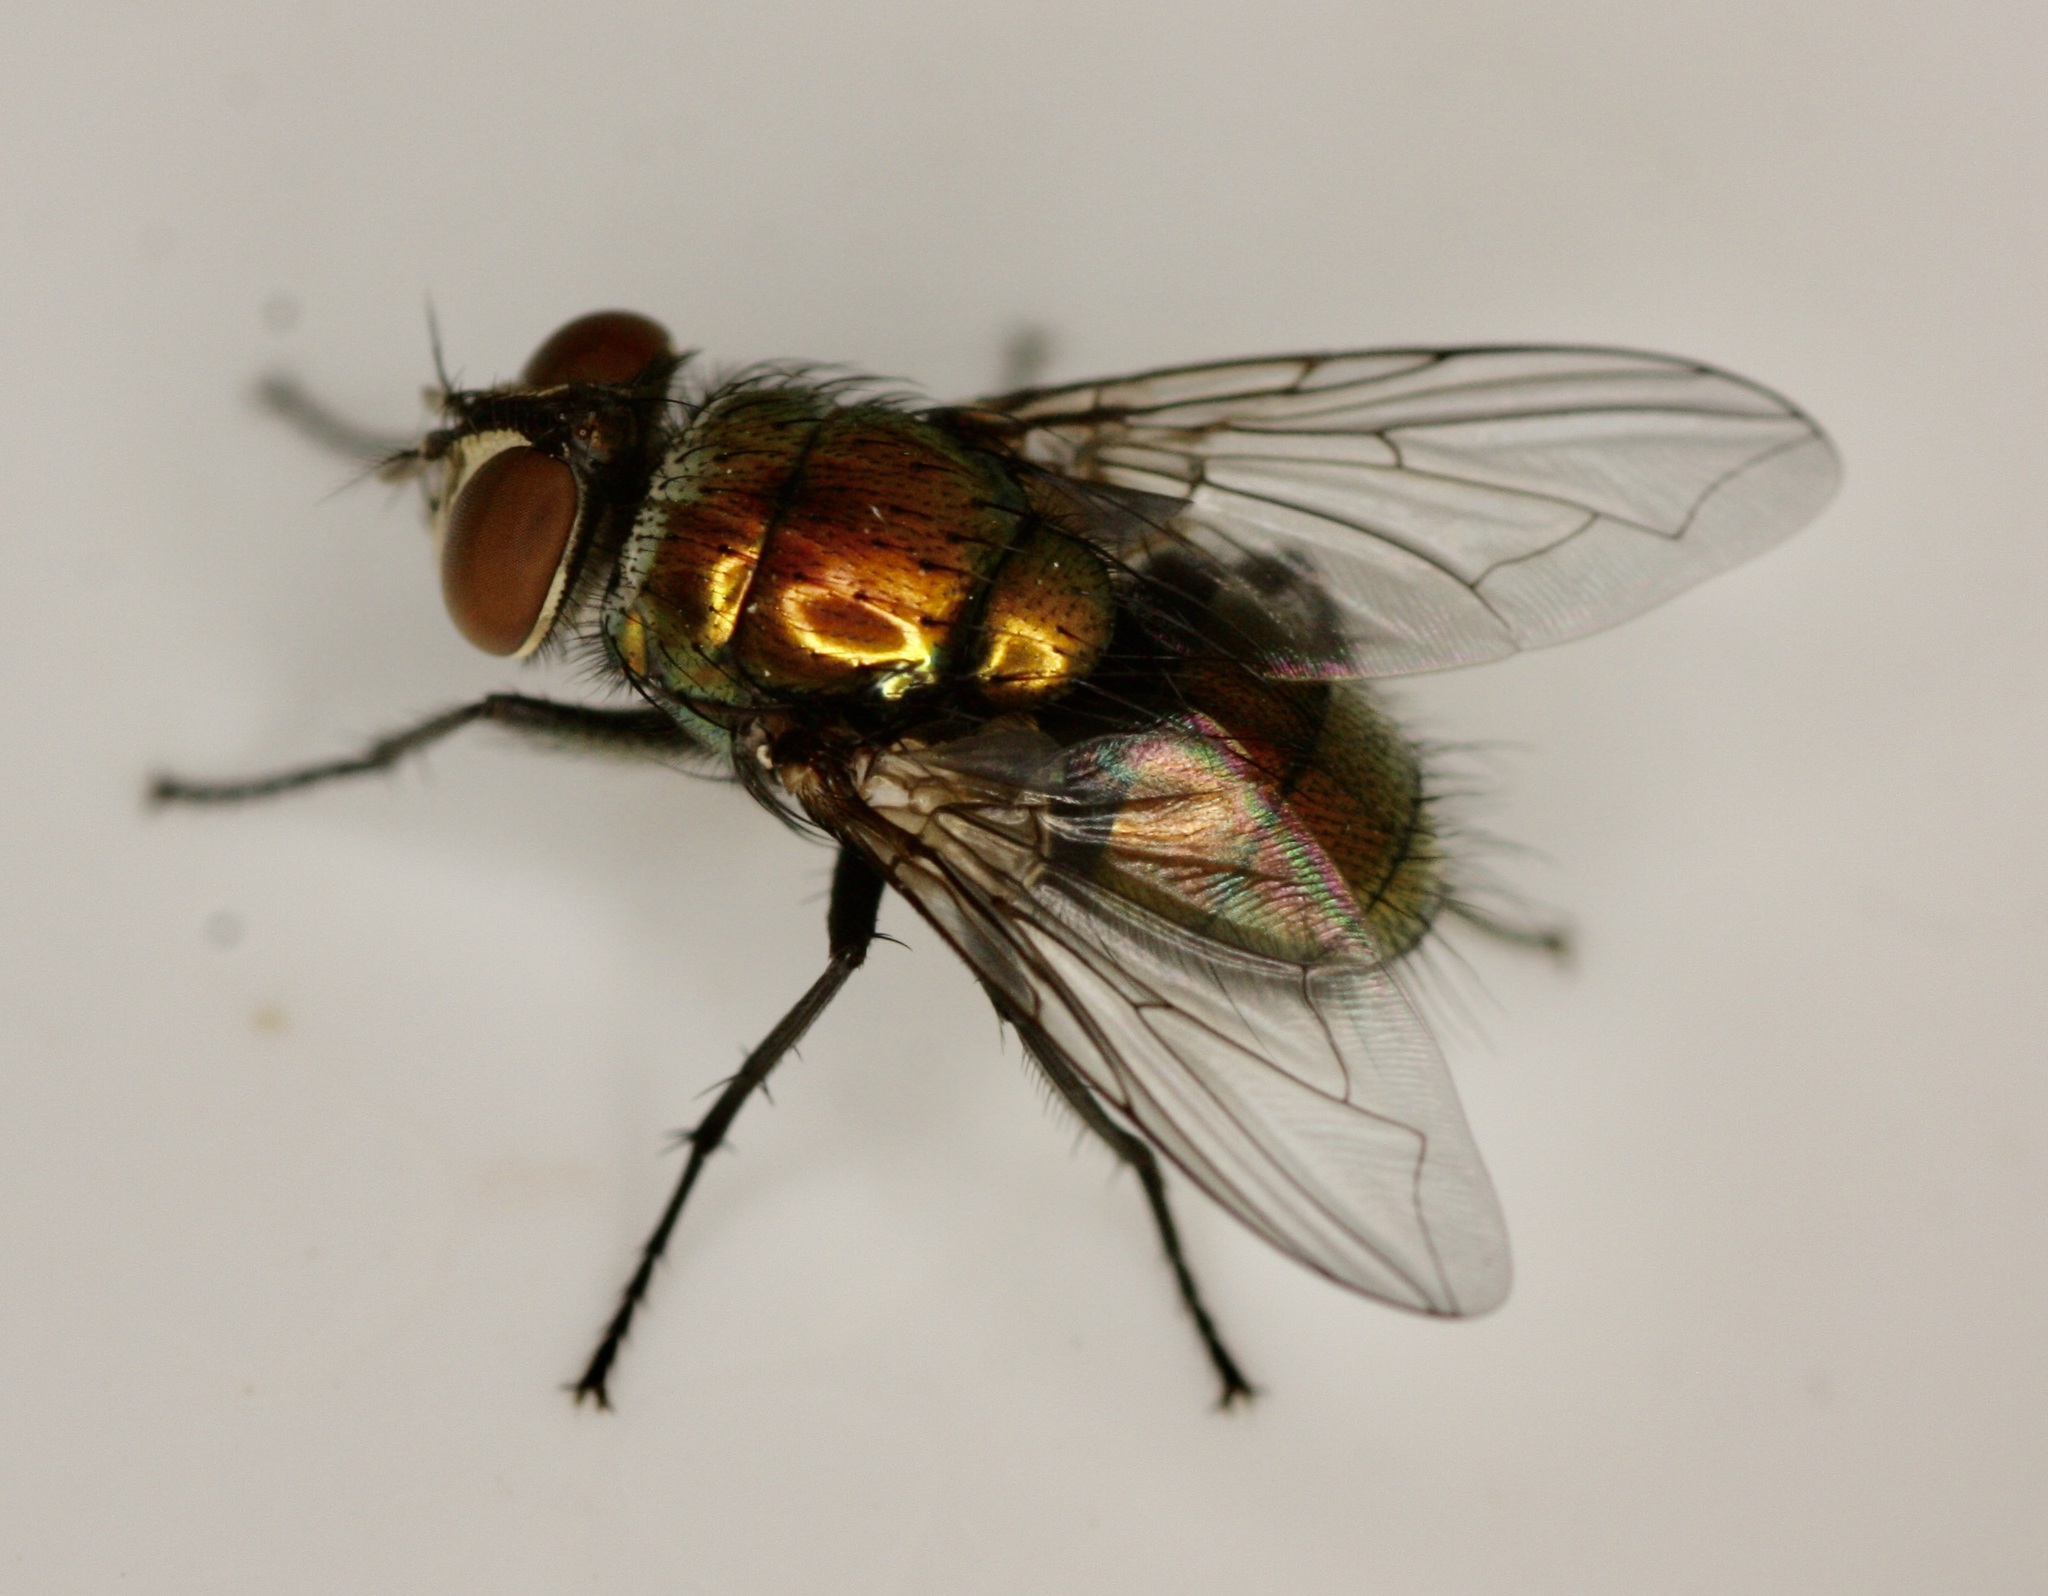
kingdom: Animalia
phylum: Arthropoda
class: Insecta
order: Diptera
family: Calliphoridae
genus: Lucilia
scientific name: Lucilia cuprina
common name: Sheep blow fly
